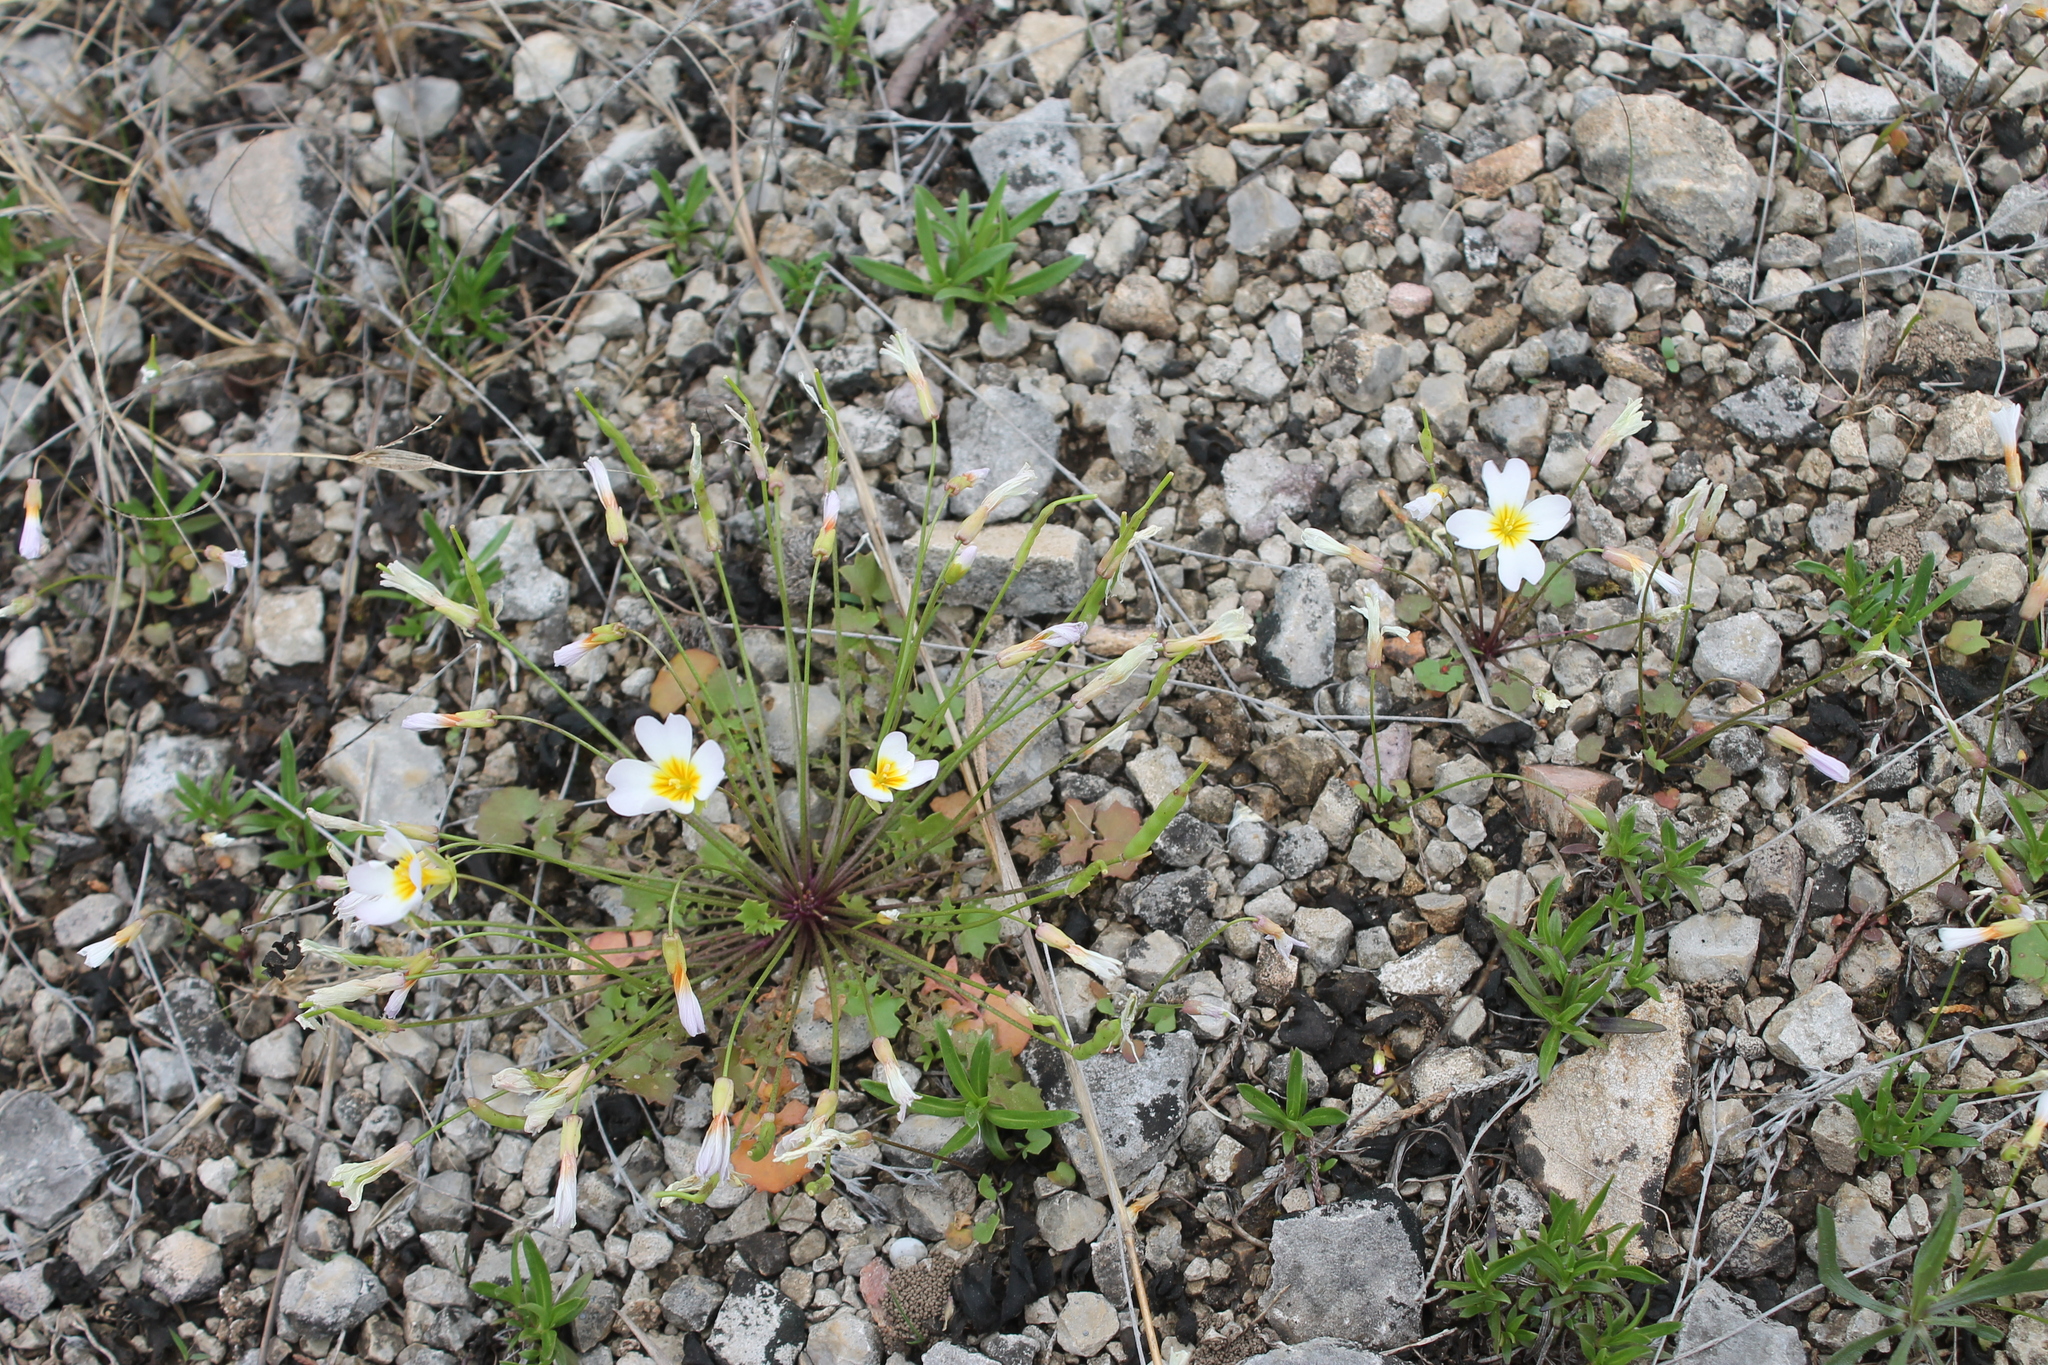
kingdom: Plantae
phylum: Tracheophyta
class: Magnoliopsida
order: Brassicales
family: Brassicaceae
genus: Leavenworthia
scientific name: Leavenworthia stylosa
